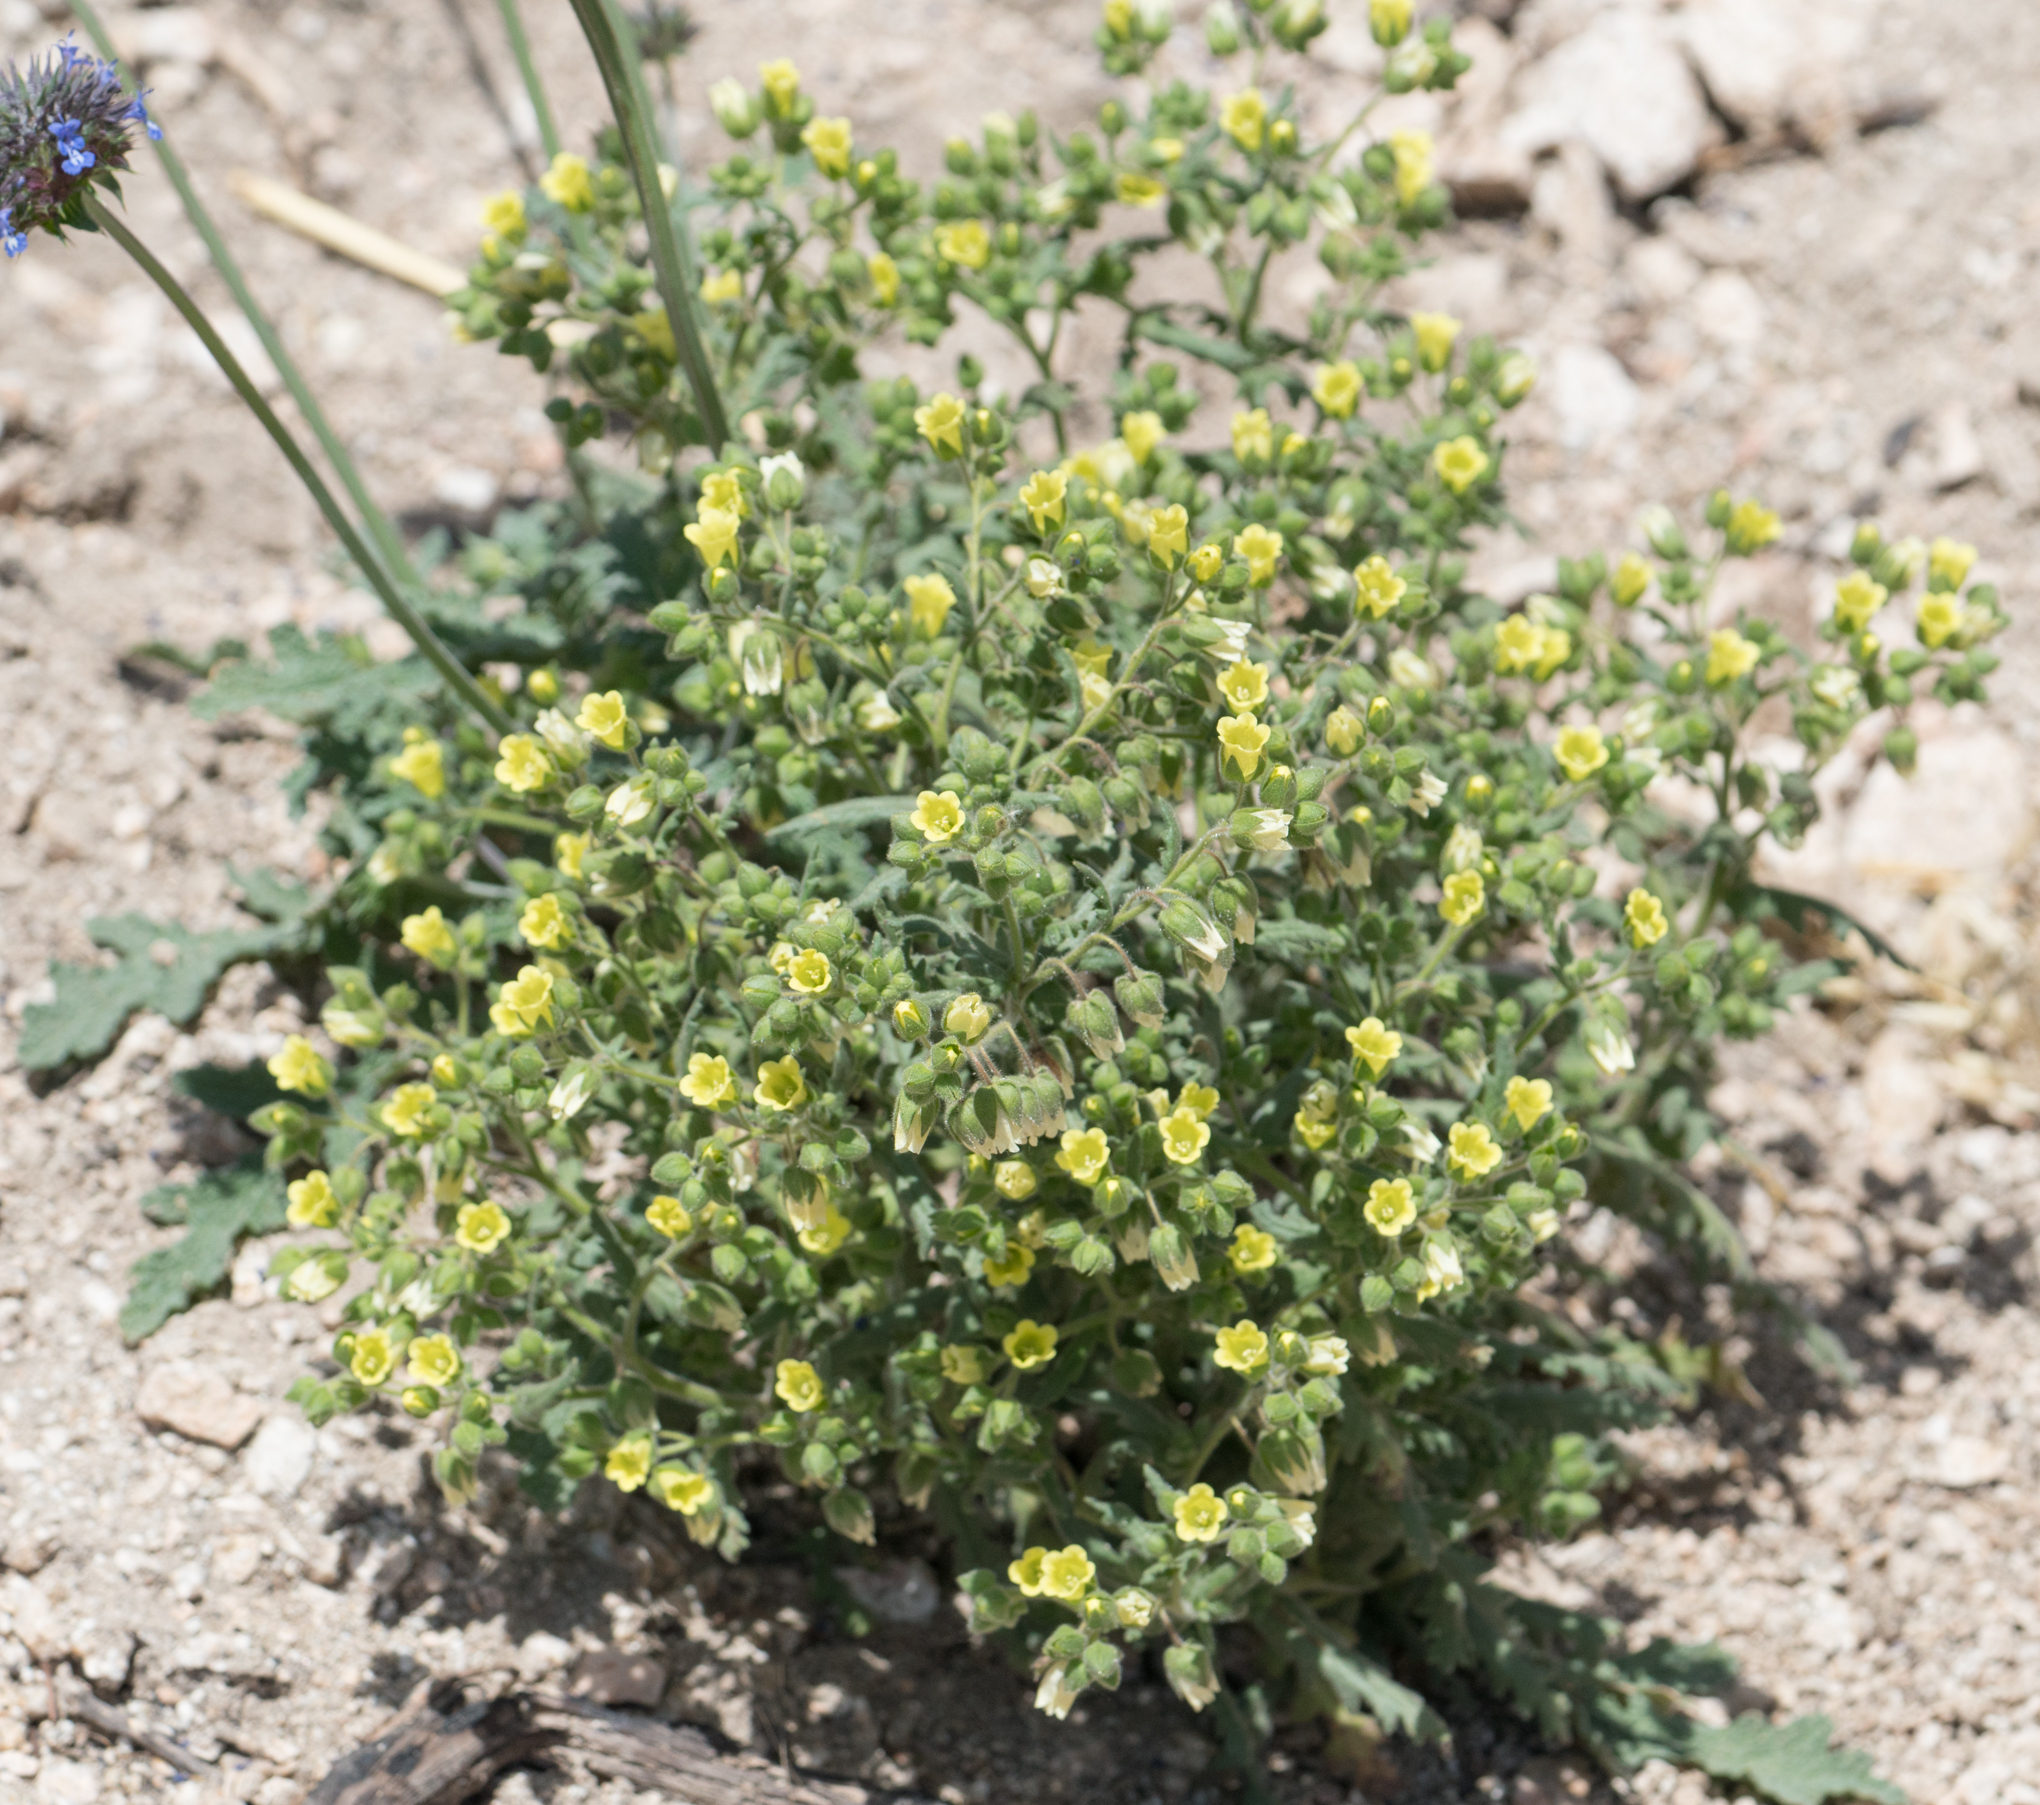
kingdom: Plantae
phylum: Tracheophyta
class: Magnoliopsida
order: Boraginales
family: Hydrophyllaceae
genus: Emmenanthe
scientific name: Emmenanthe penduliflora
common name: Whispering-bells
